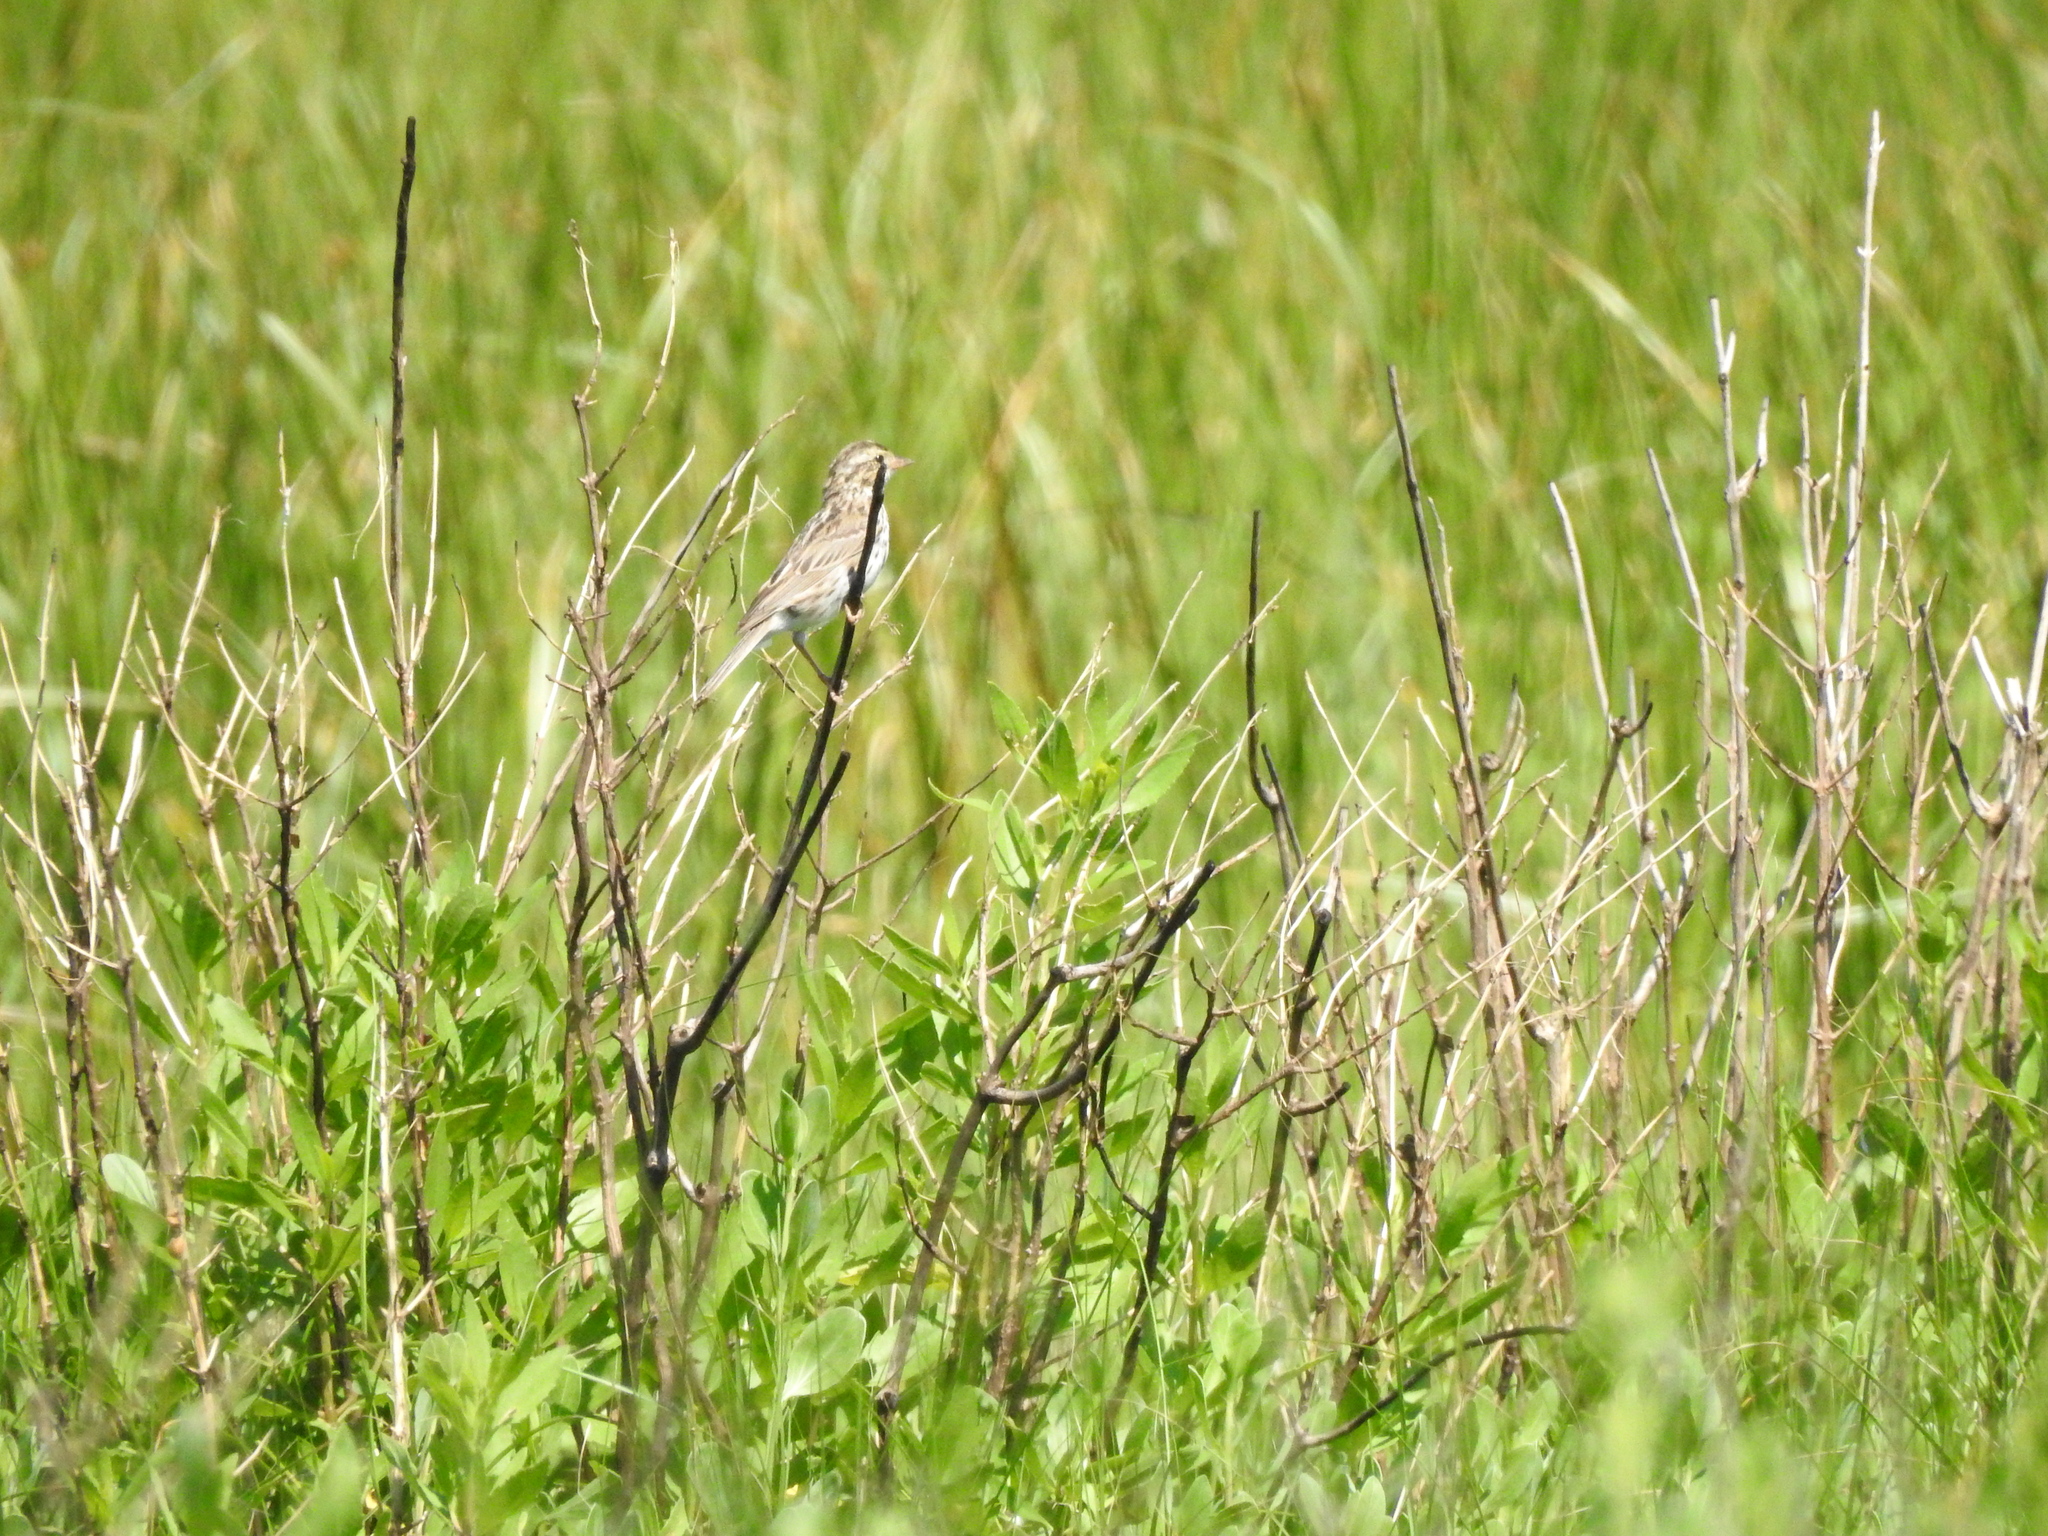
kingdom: Animalia
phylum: Chordata
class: Aves
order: Passeriformes
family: Passerellidae
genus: Passerculus
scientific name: Passerculus sandwichensis
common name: Savannah sparrow
